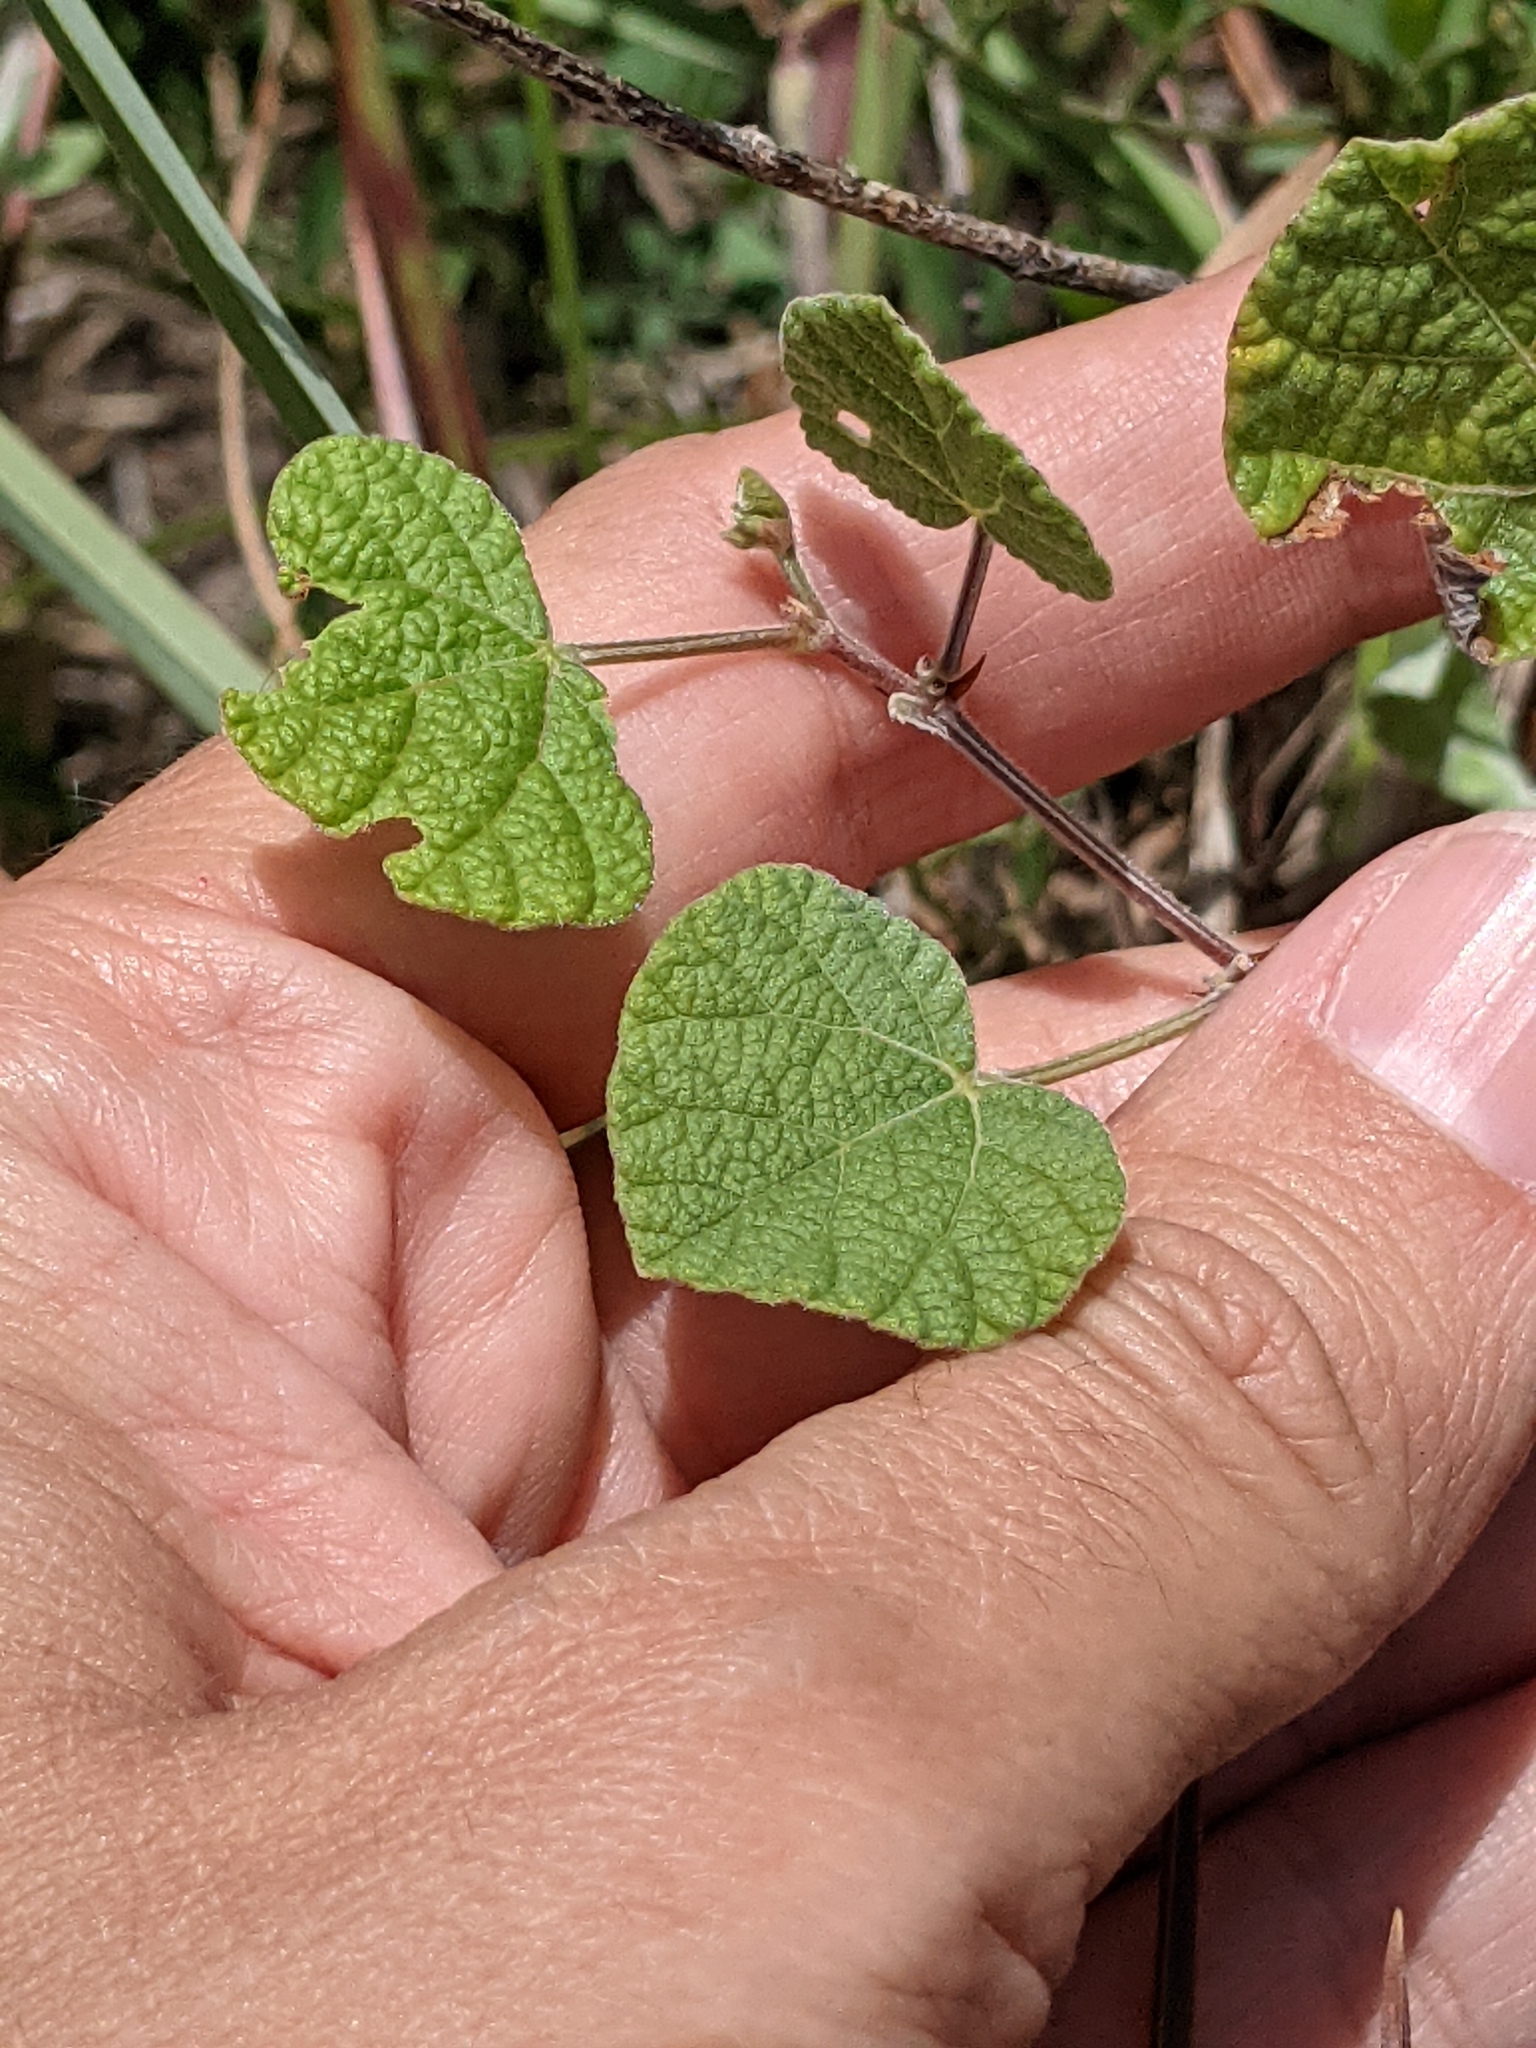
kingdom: Plantae
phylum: Tracheophyta
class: Magnoliopsida
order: Fabales
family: Fabaceae
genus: Rhynchosia
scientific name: Rhynchosia americana
